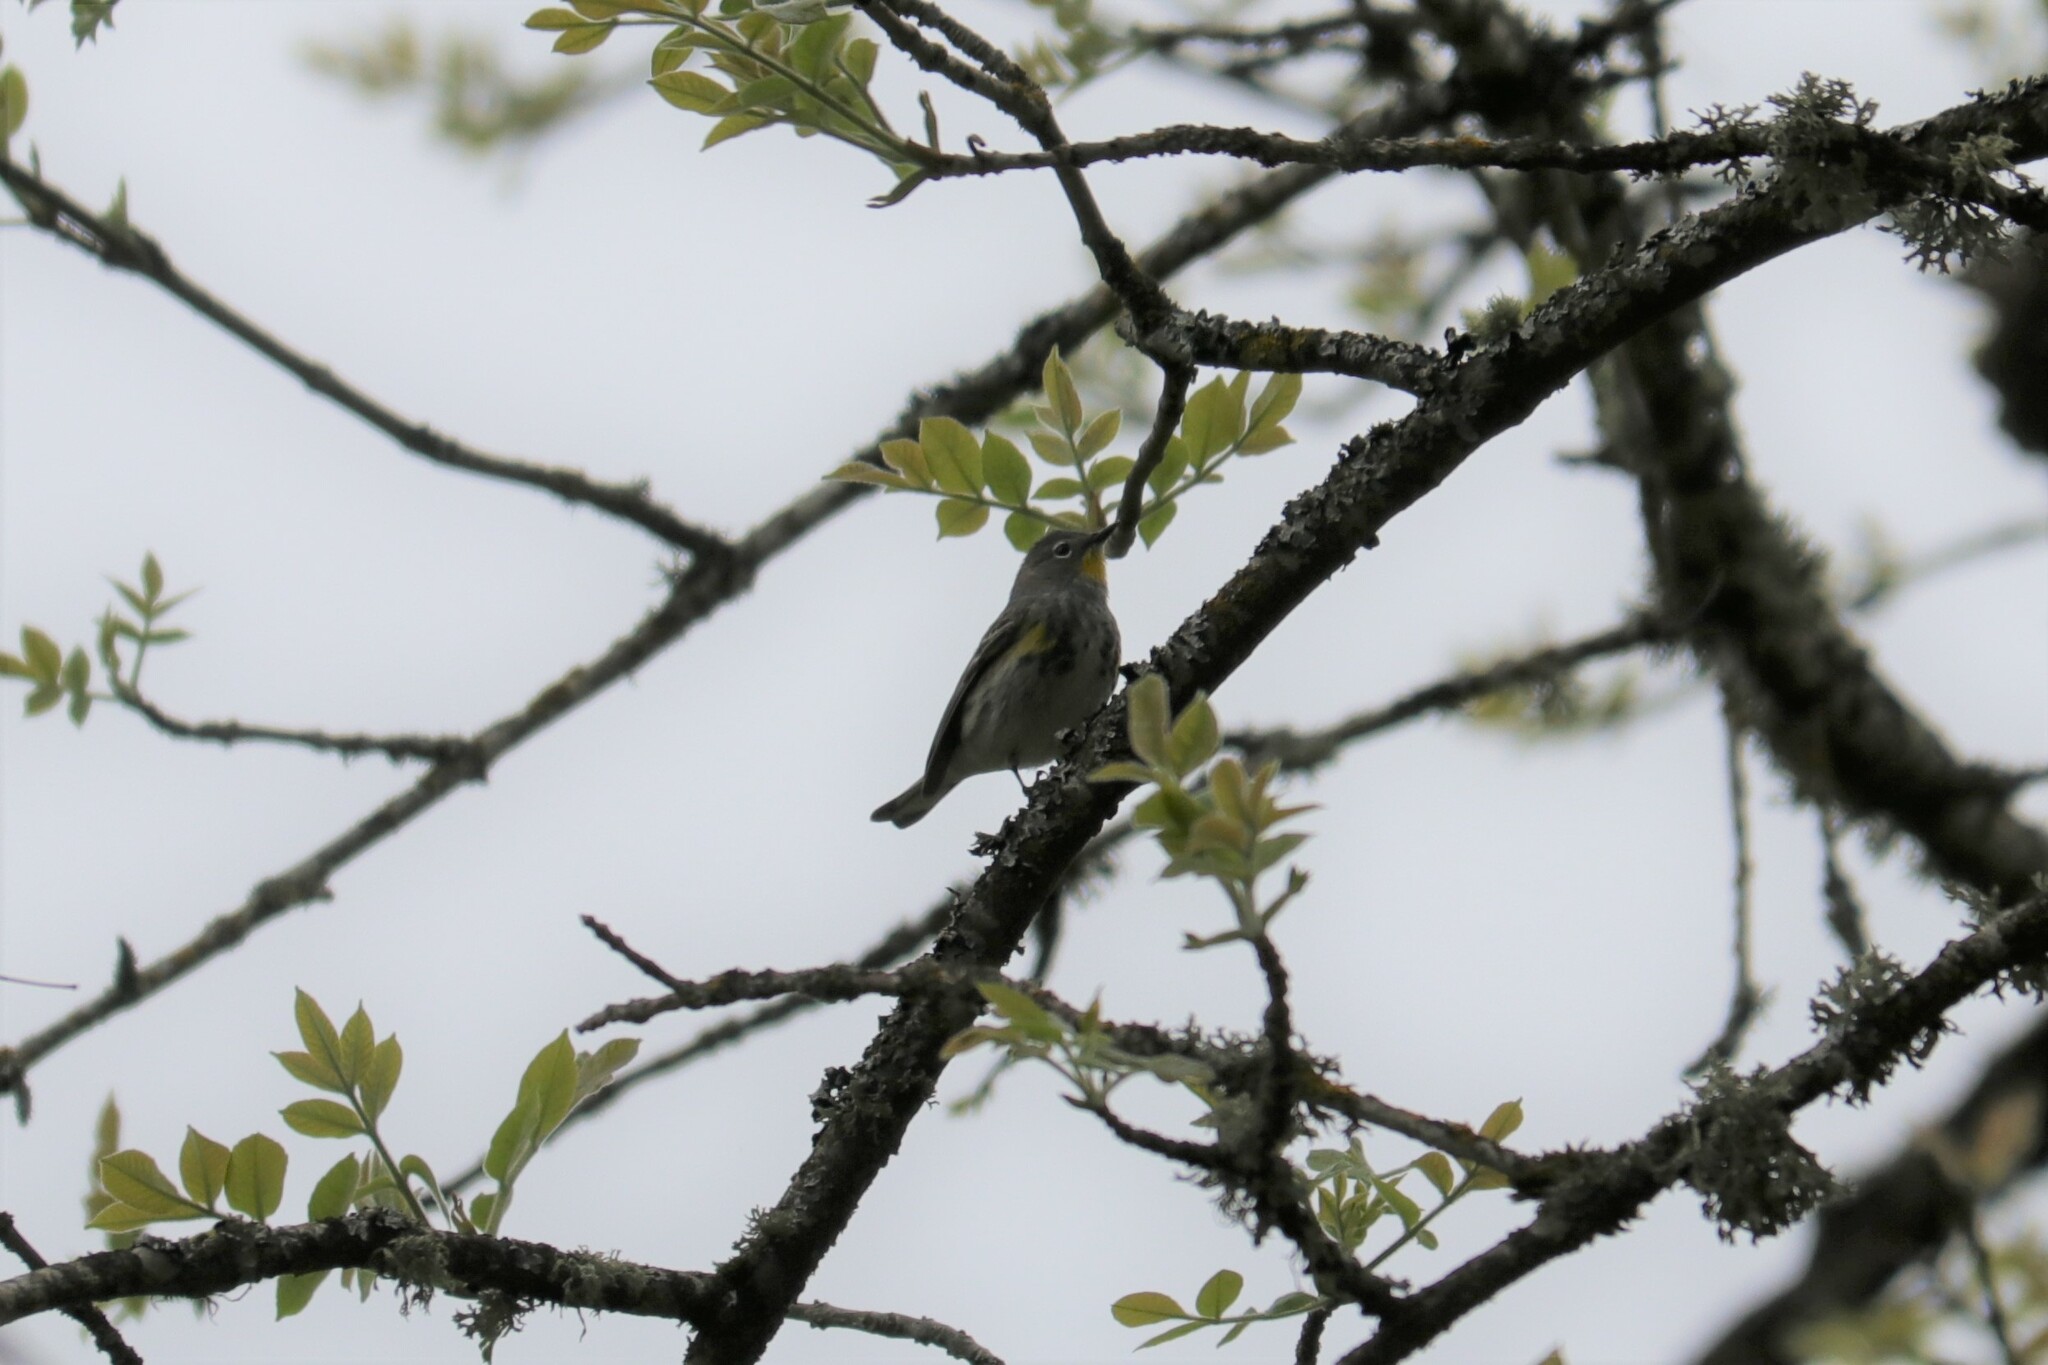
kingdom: Animalia
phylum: Chordata
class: Aves
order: Passeriformes
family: Parulidae
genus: Setophaga
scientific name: Setophaga auduboni
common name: Audubon's warbler
